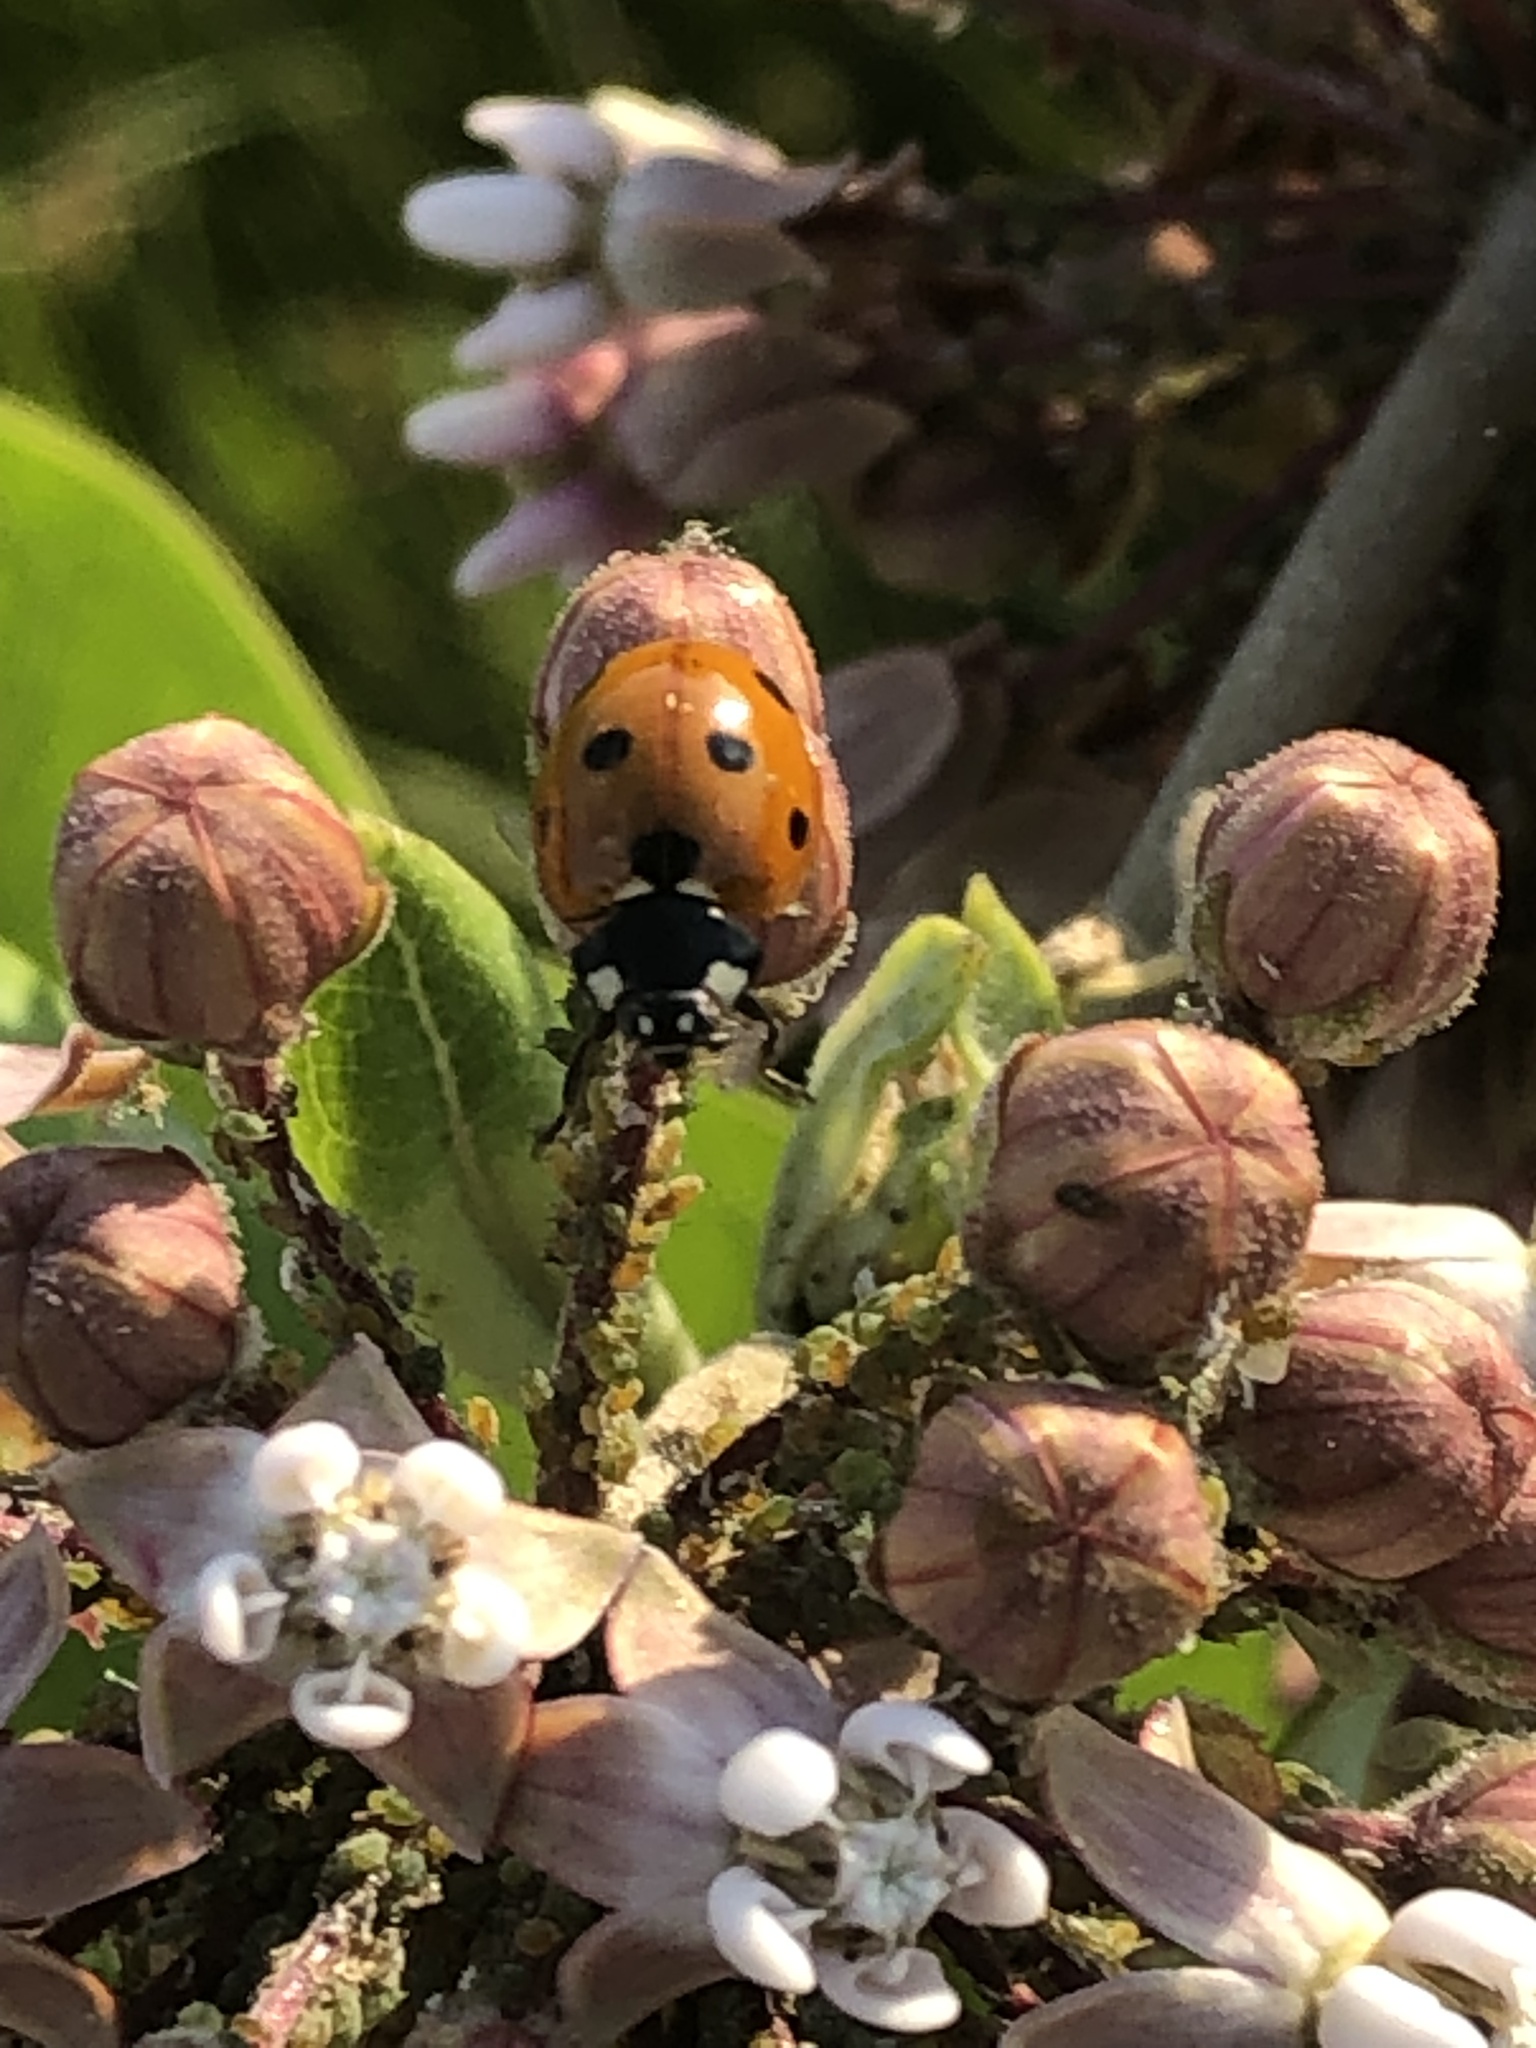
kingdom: Animalia
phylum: Arthropoda
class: Insecta
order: Coleoptera
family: Coccinellidae
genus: Coccinella
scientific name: Coccinella septempunctata
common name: Sevenspotted lady beetle
